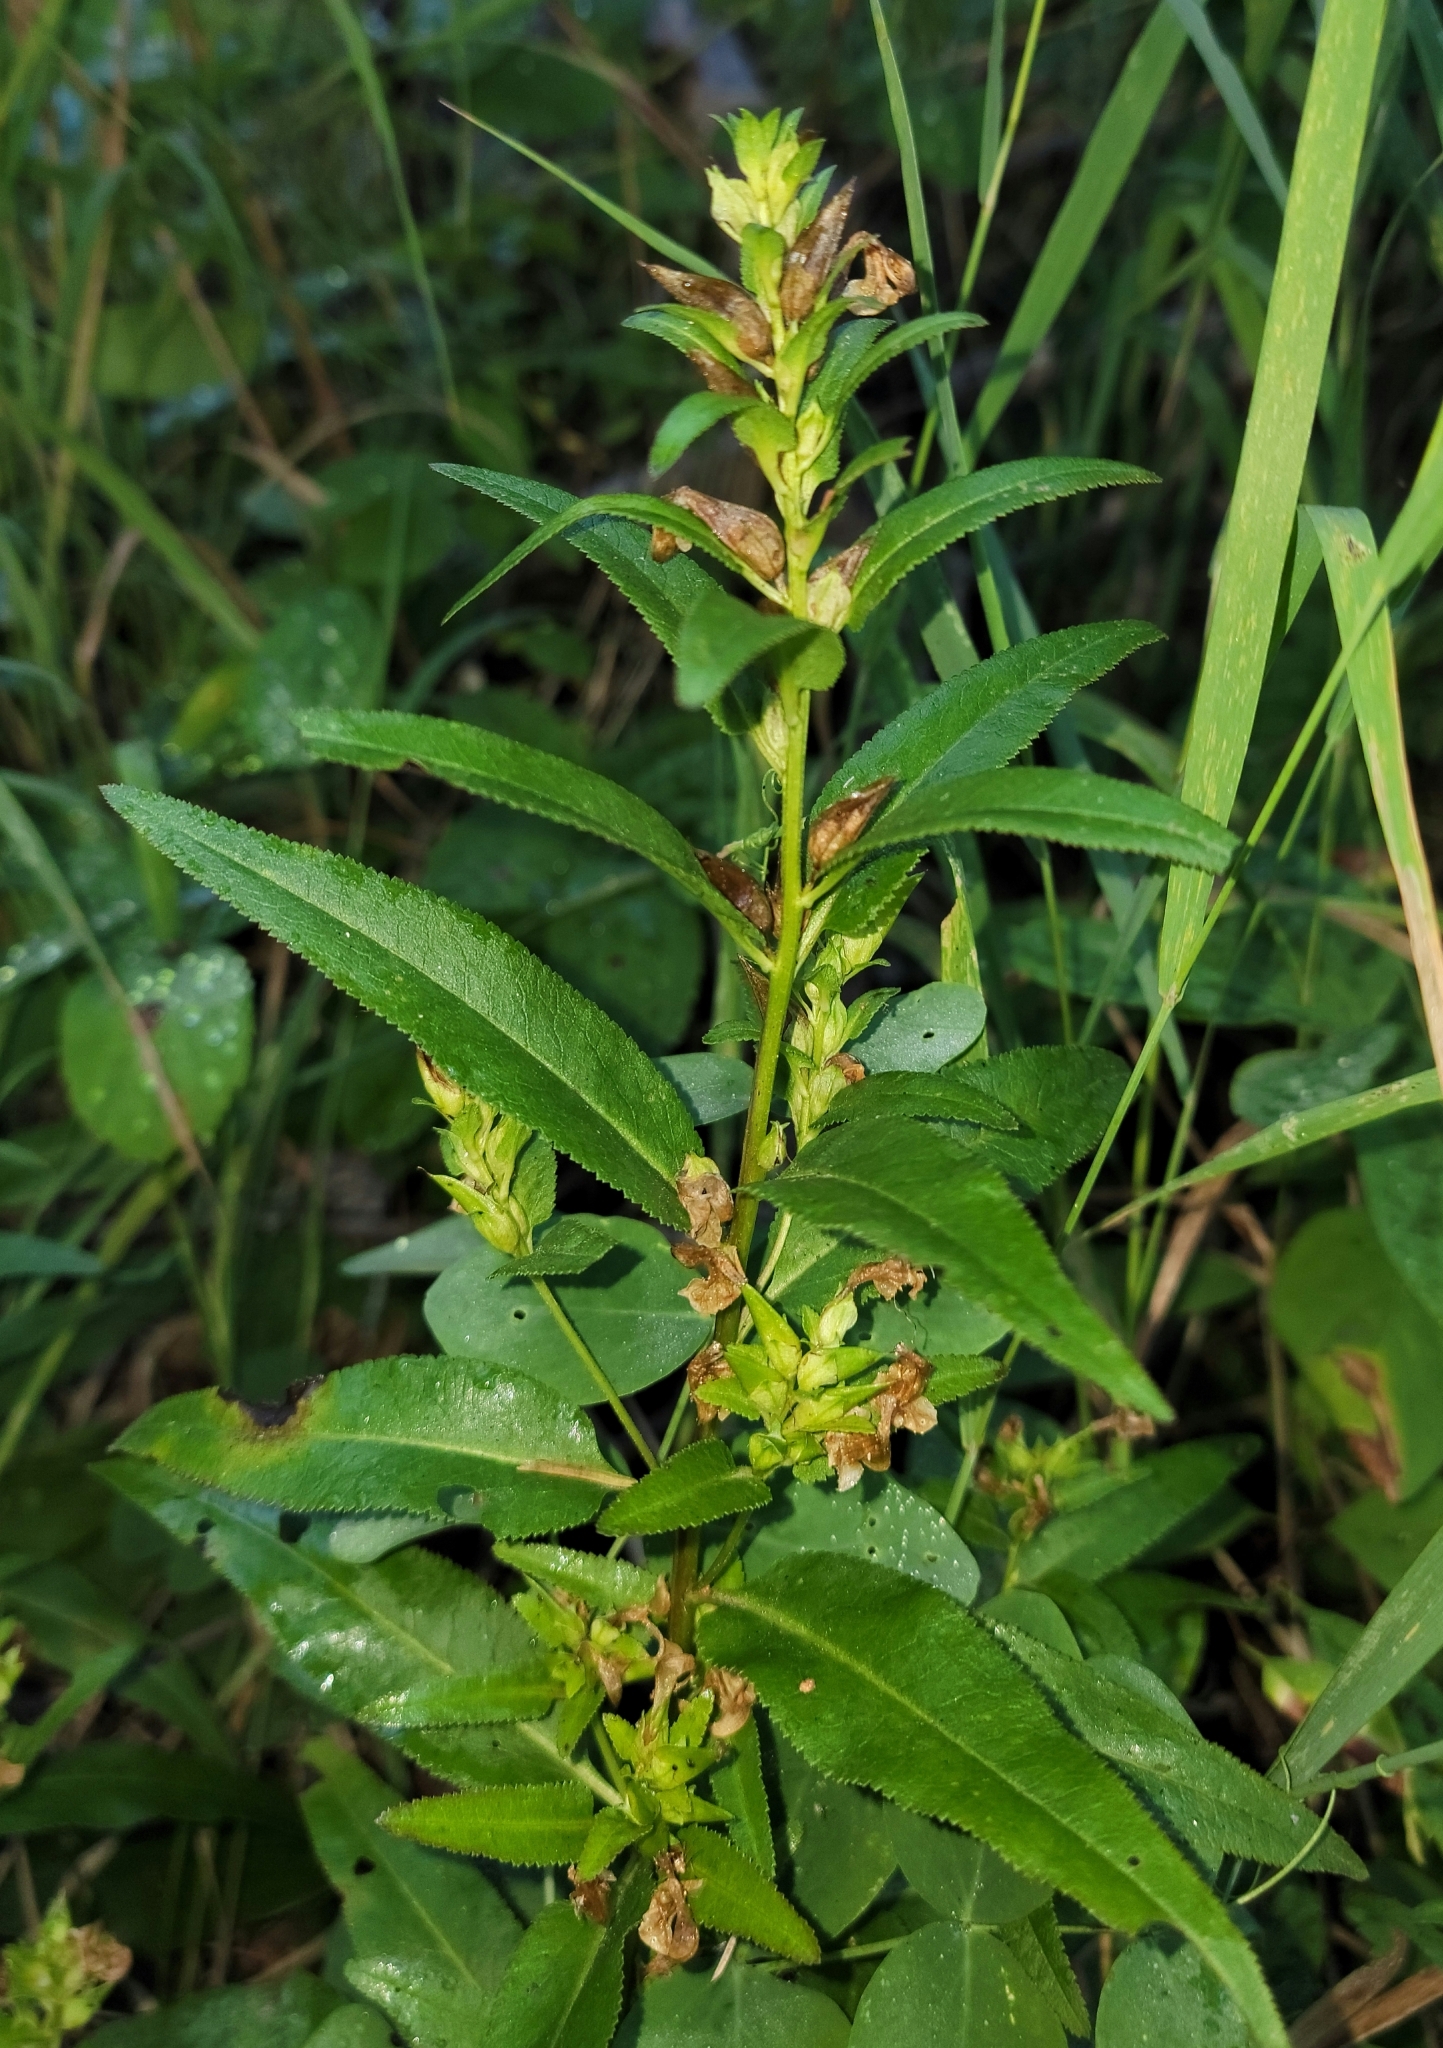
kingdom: Plantae
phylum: Tracheophyta
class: Magnoliopsida
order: Lamiales
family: Orobanchaceae
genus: Pedicularis
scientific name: Pedicularis racemosa
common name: Leafy lousewort
